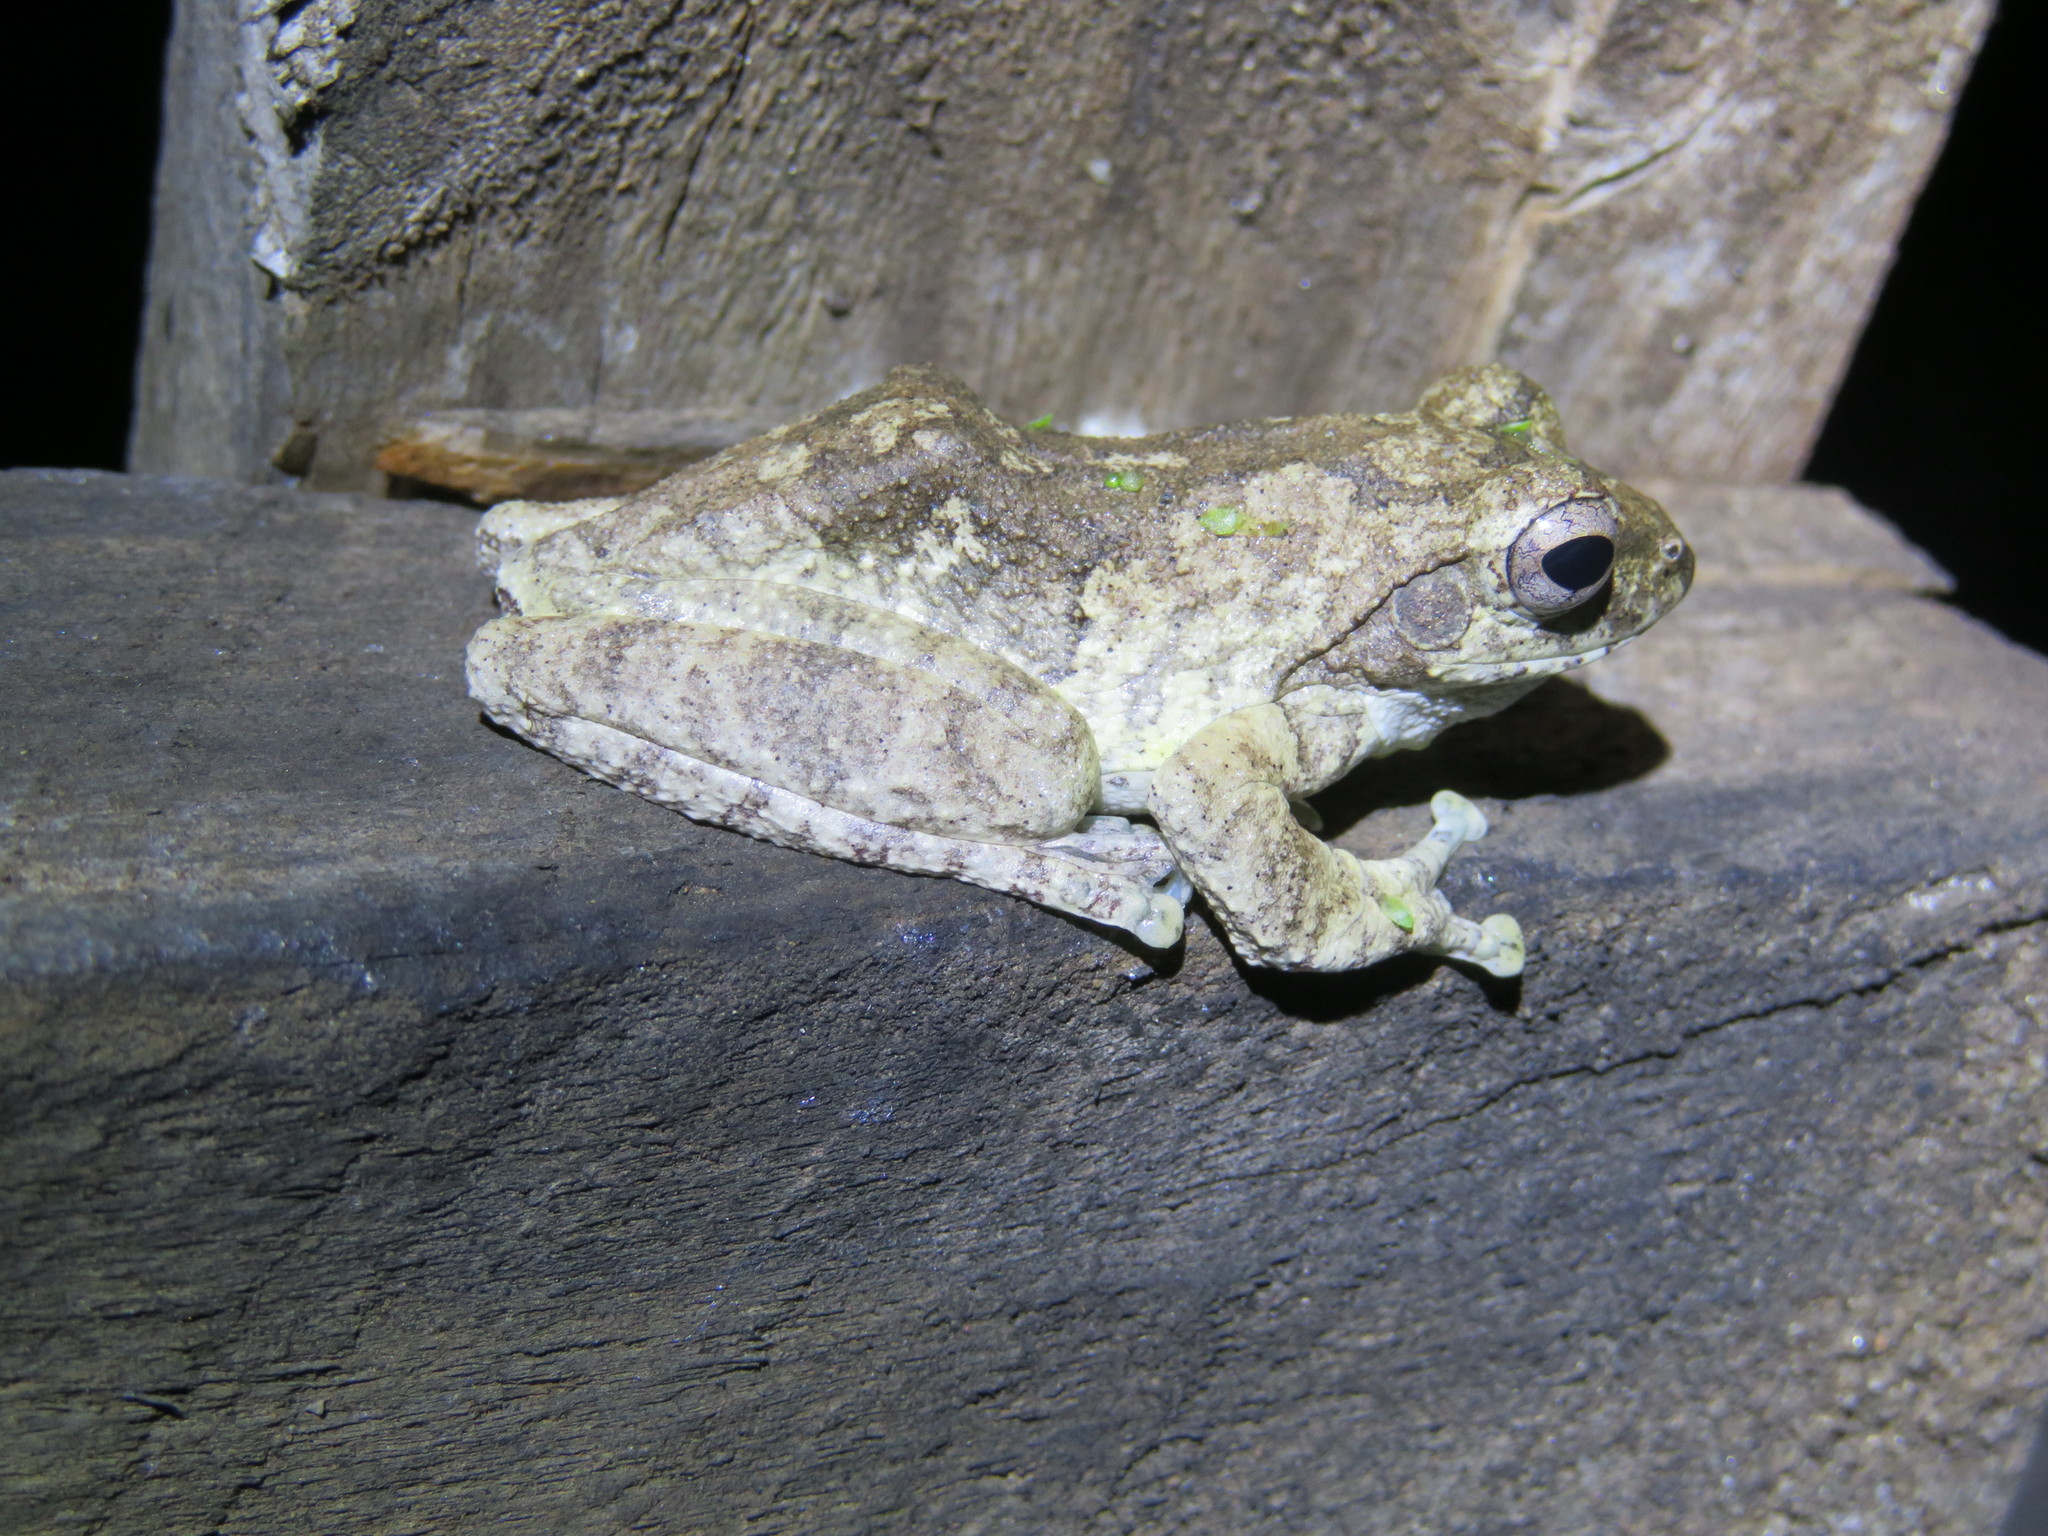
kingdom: Animalia
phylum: Chordata
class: Amphibia
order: Anura
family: Rhacophoridae
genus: Chiromantis
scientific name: Chiromantis xerampelina
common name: African gray treefrog
